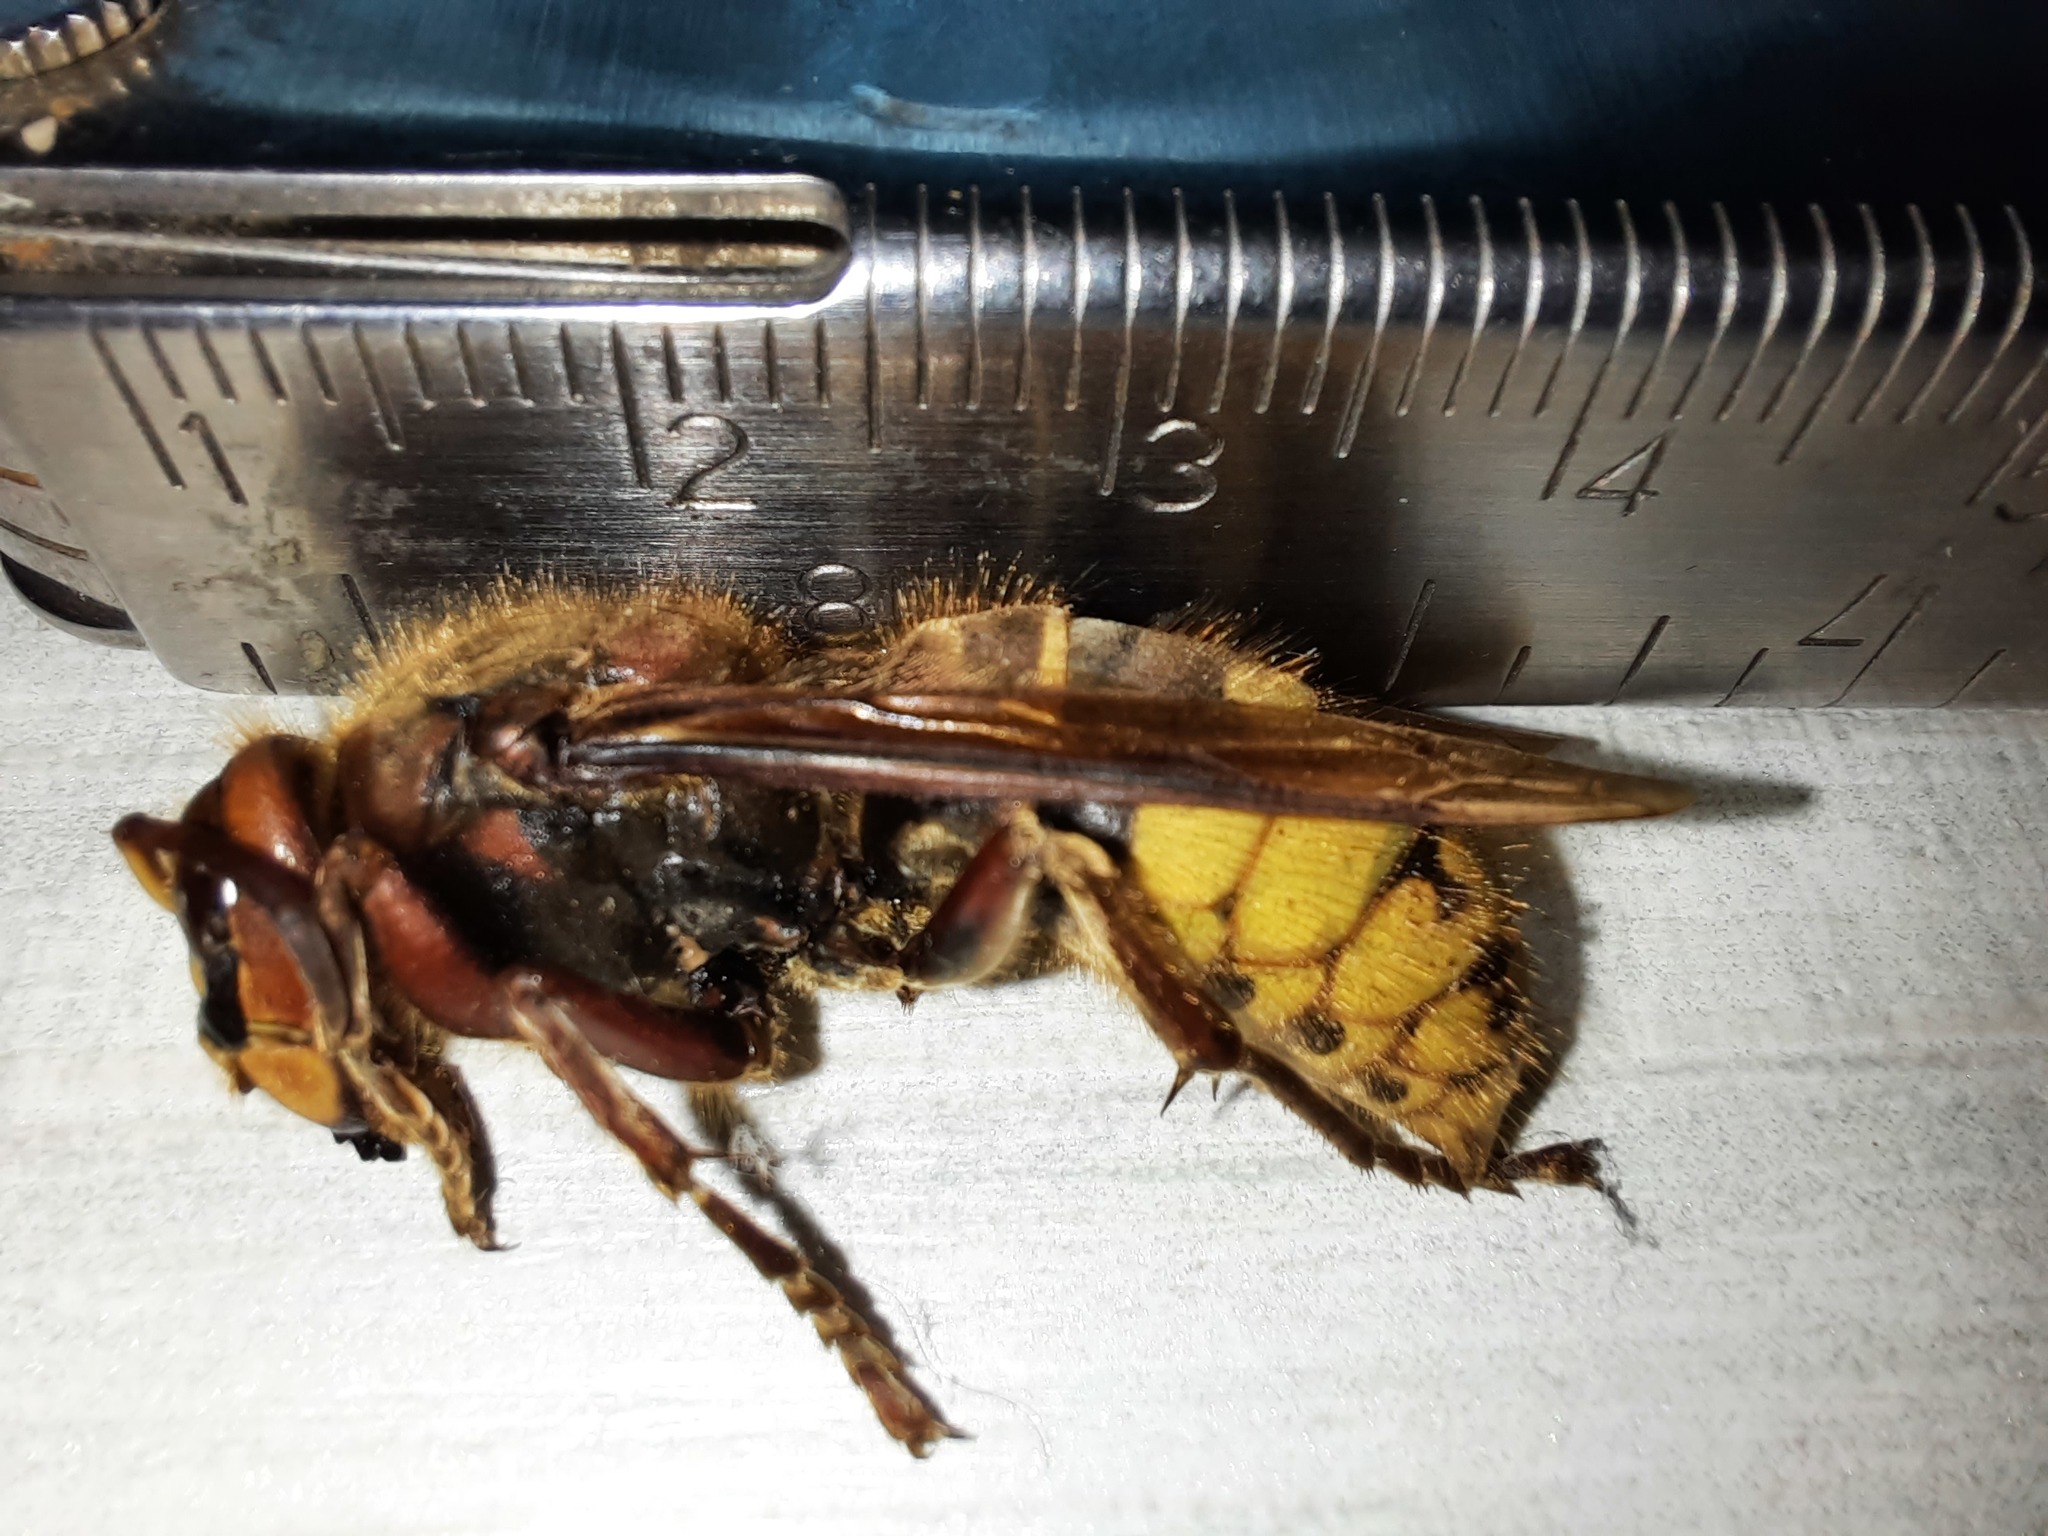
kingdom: Animalia
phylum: Arthropoda
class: Insecta
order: Hymenoptera
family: Vespidae
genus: Vespa
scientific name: Vespa crabro
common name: Hornet
